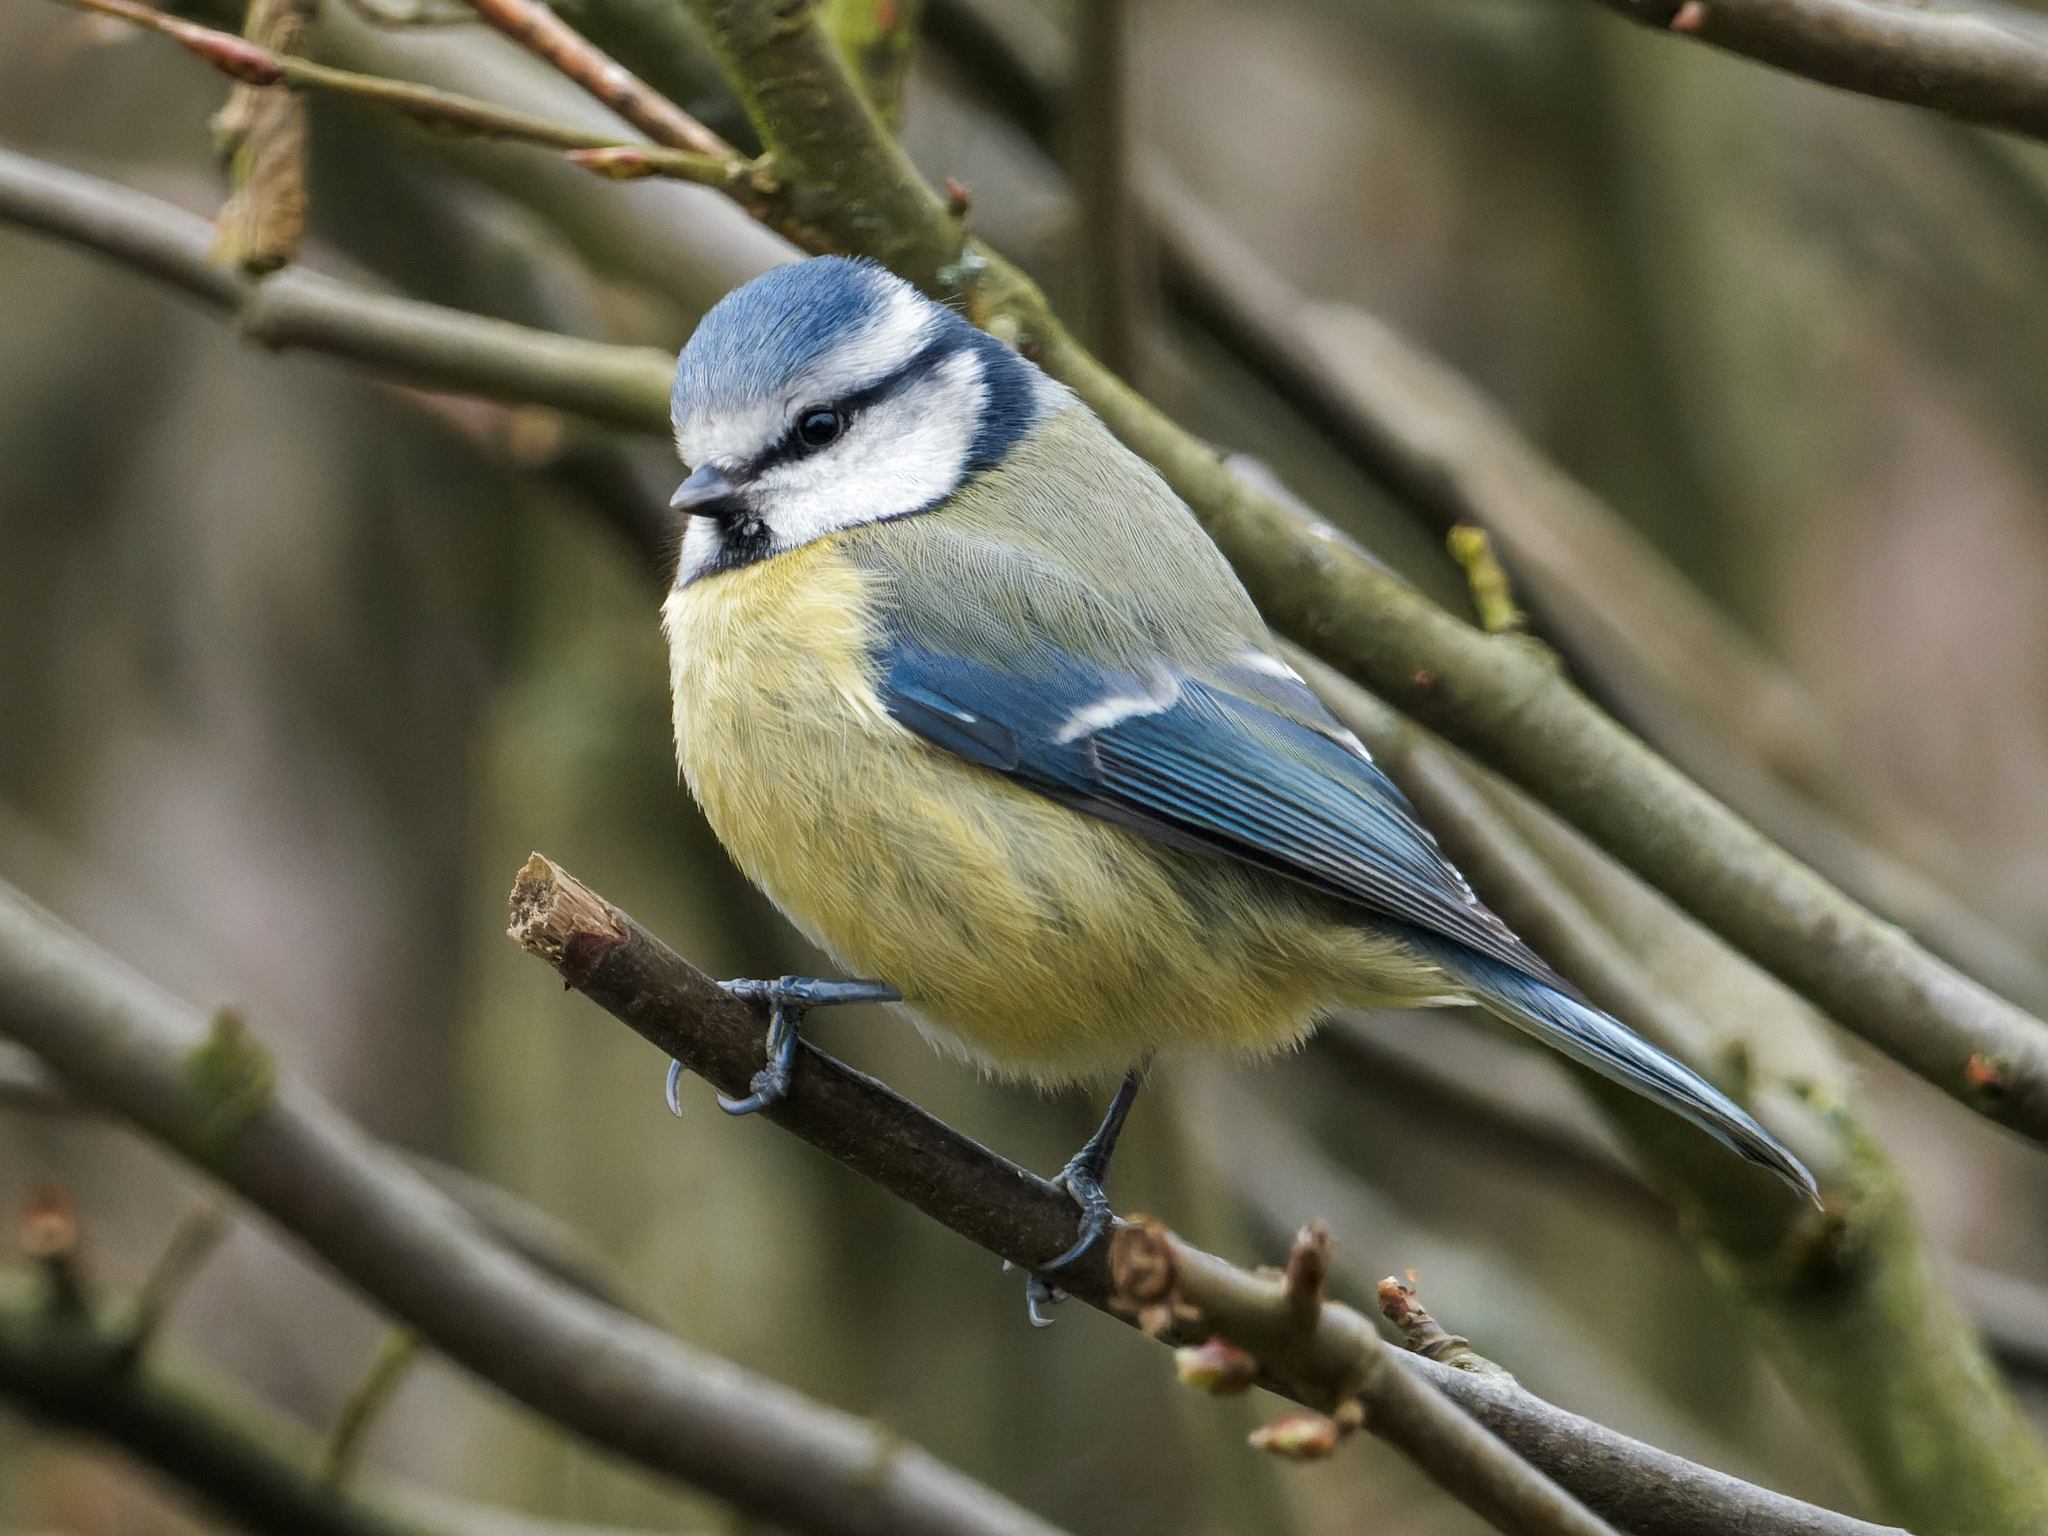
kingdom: Animalia
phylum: Chordata
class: Aves
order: Passeriformes
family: Paridae
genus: Cyanistes
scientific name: Cyanistes caeruleus
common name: Eurasian blue tit
